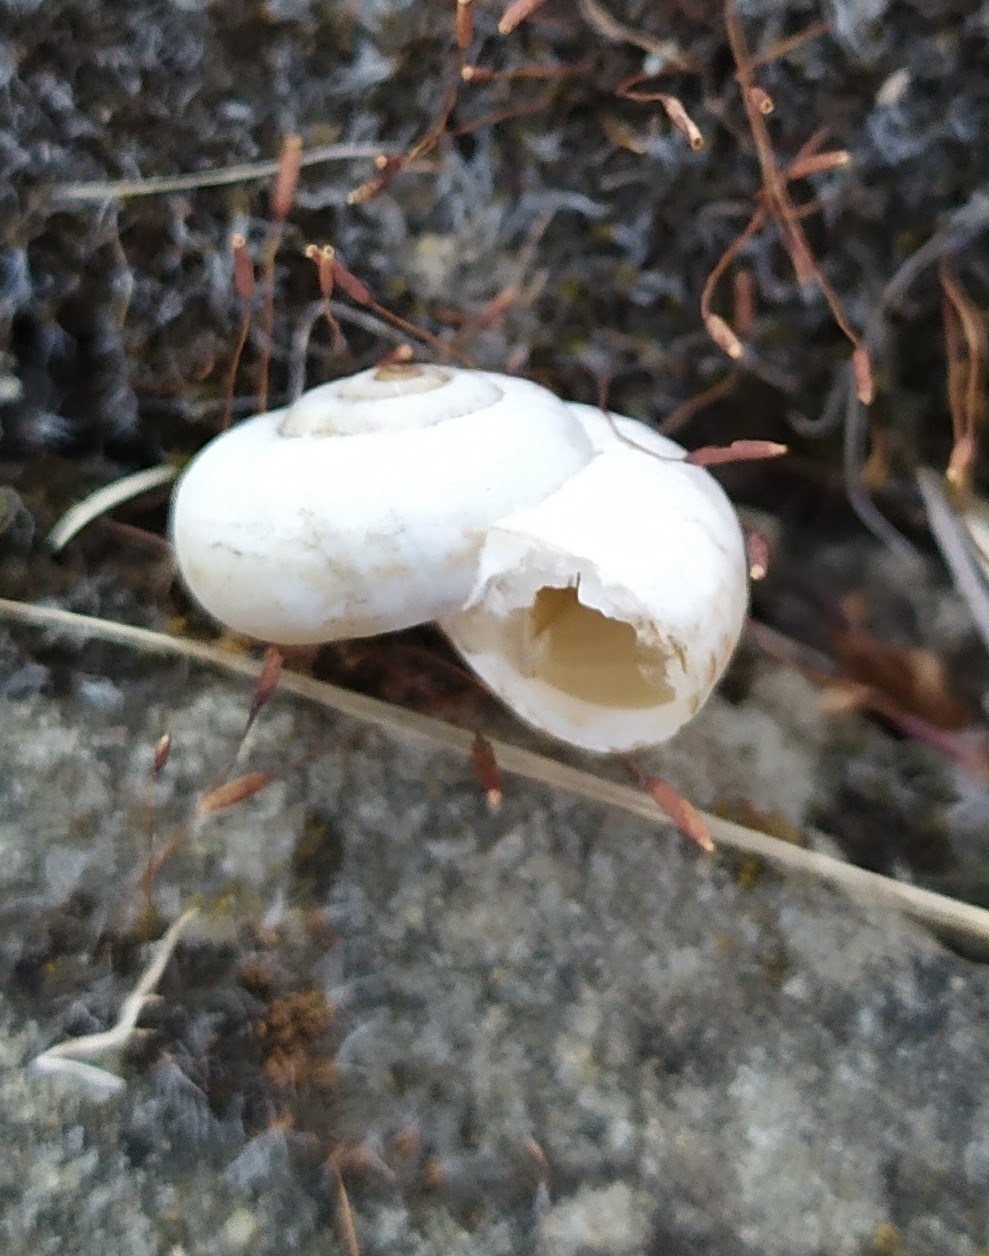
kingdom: Animalia
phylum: Mollusca
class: Gastropoda
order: Stylommatophora
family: Geomitridae
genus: Xeropicta
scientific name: Xeropicta derbentina
